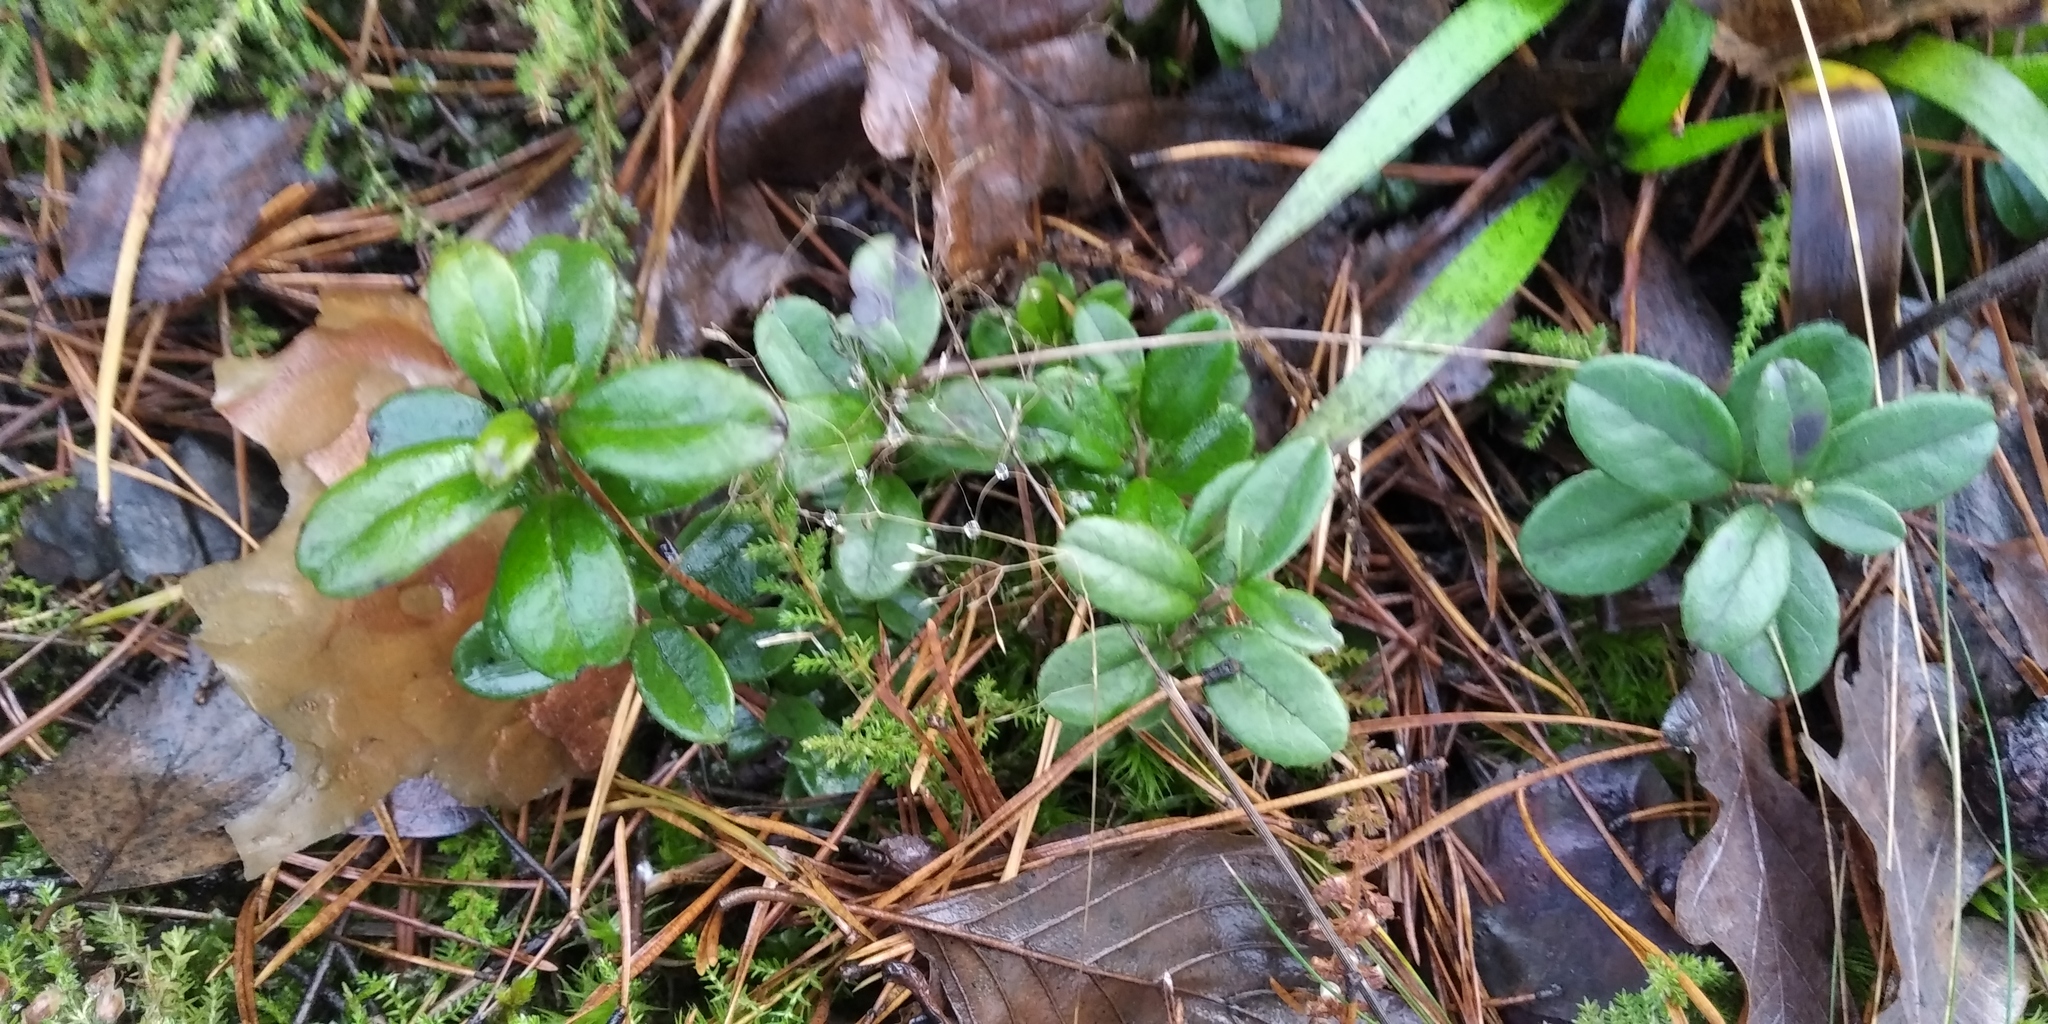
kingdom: Plantae
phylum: Tracheophyta
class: Magnoliopsida
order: Ericales
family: Ericaceae
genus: Vaccinium
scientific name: Vaccinium vitis-idaea
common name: Cowberry
